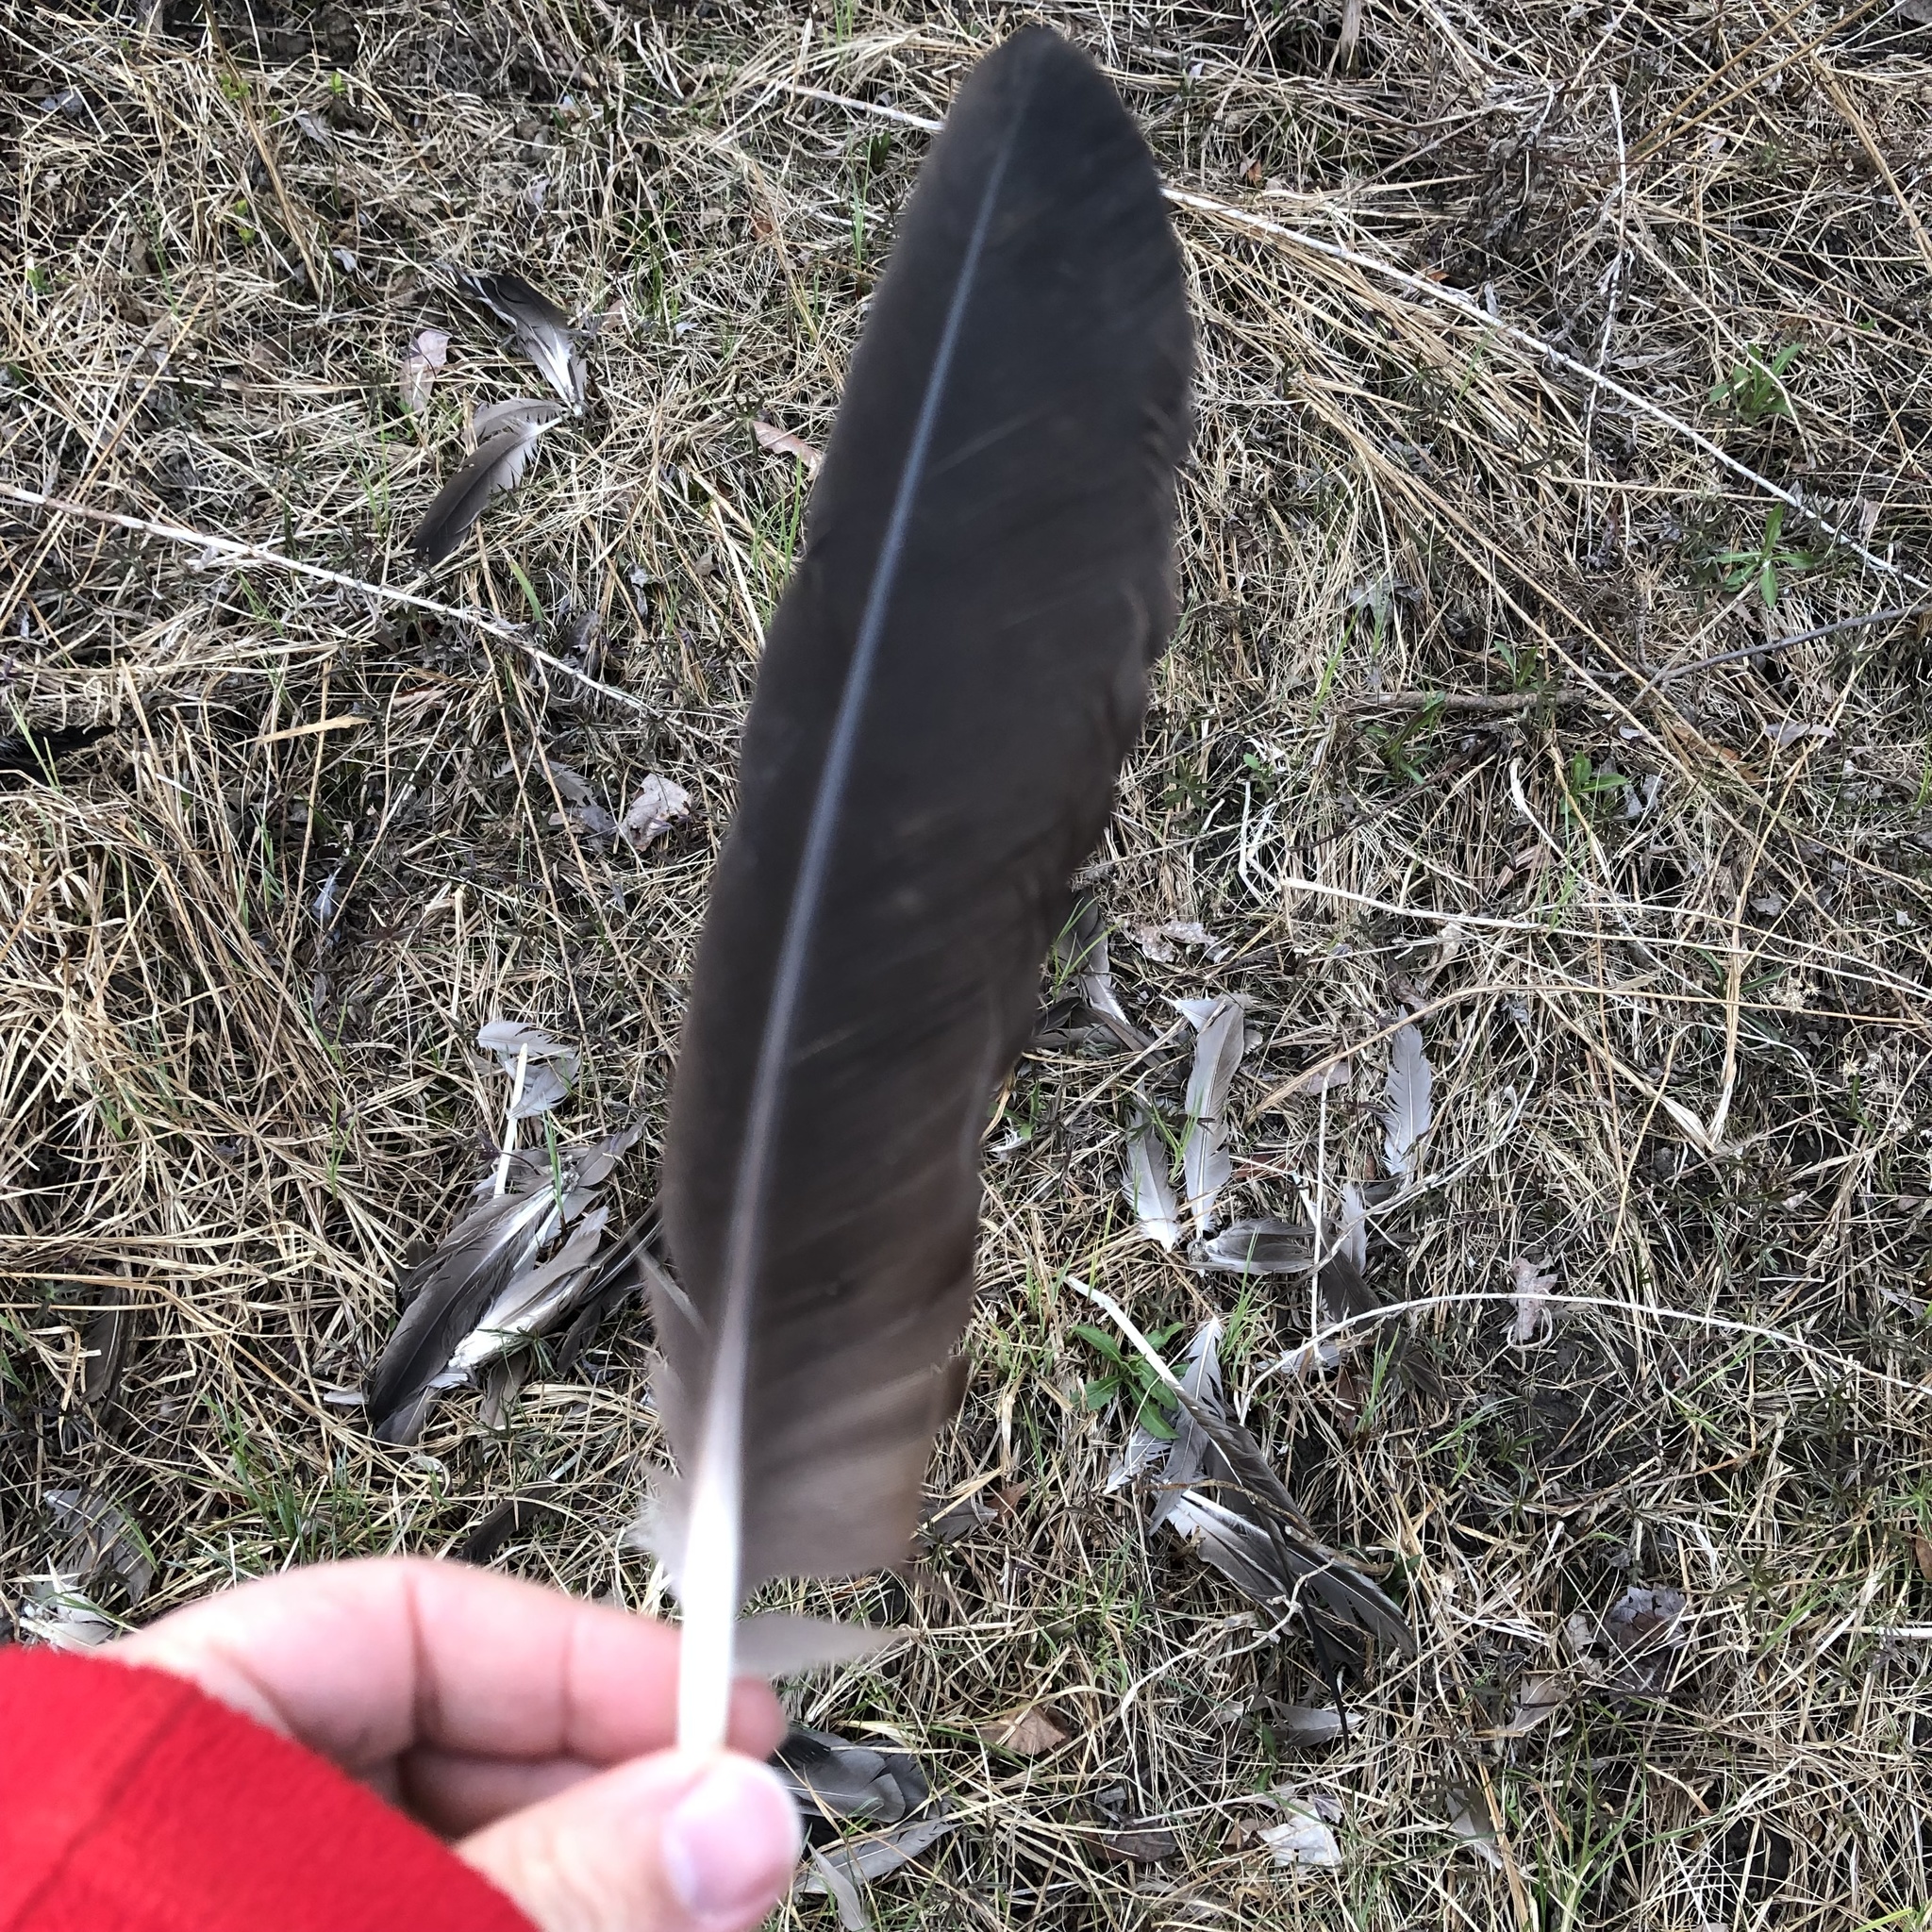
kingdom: Animalia
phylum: Chordata
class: Aves
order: Anseriformes
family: Anatidae
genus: Branta
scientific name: Branta canadensis
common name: Canada goose
